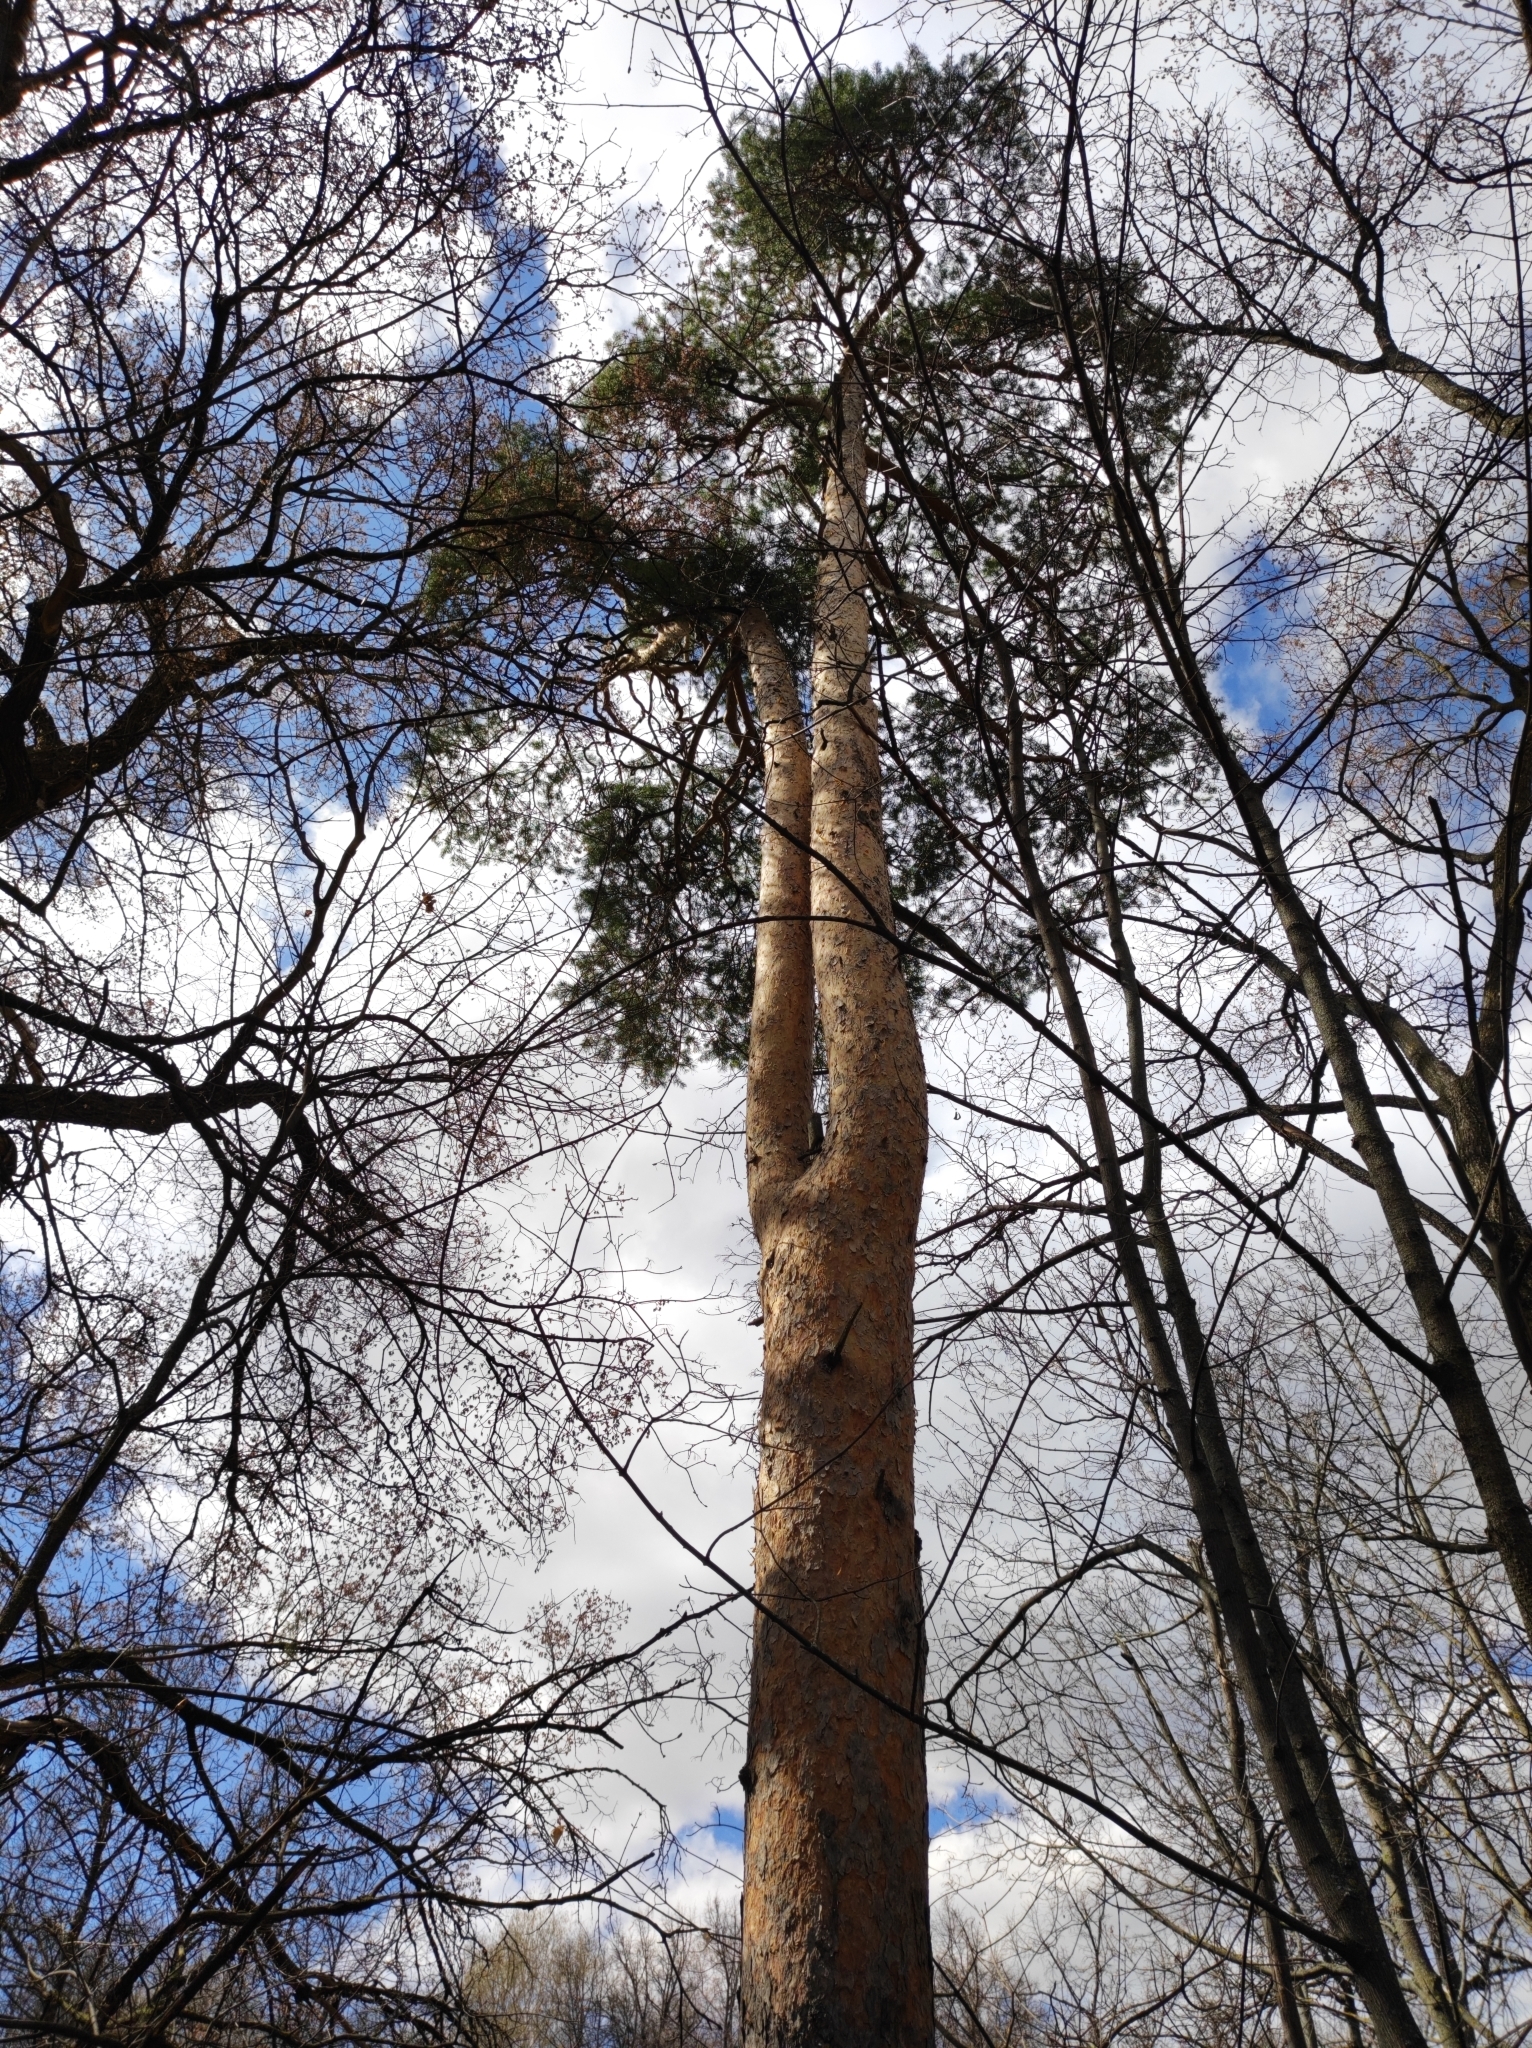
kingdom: Plantae
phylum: Tracheophyta
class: Pinopsida
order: Pinales
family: Pinaceae
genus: Pinus
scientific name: Pinus sylvestris
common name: Scots pine
